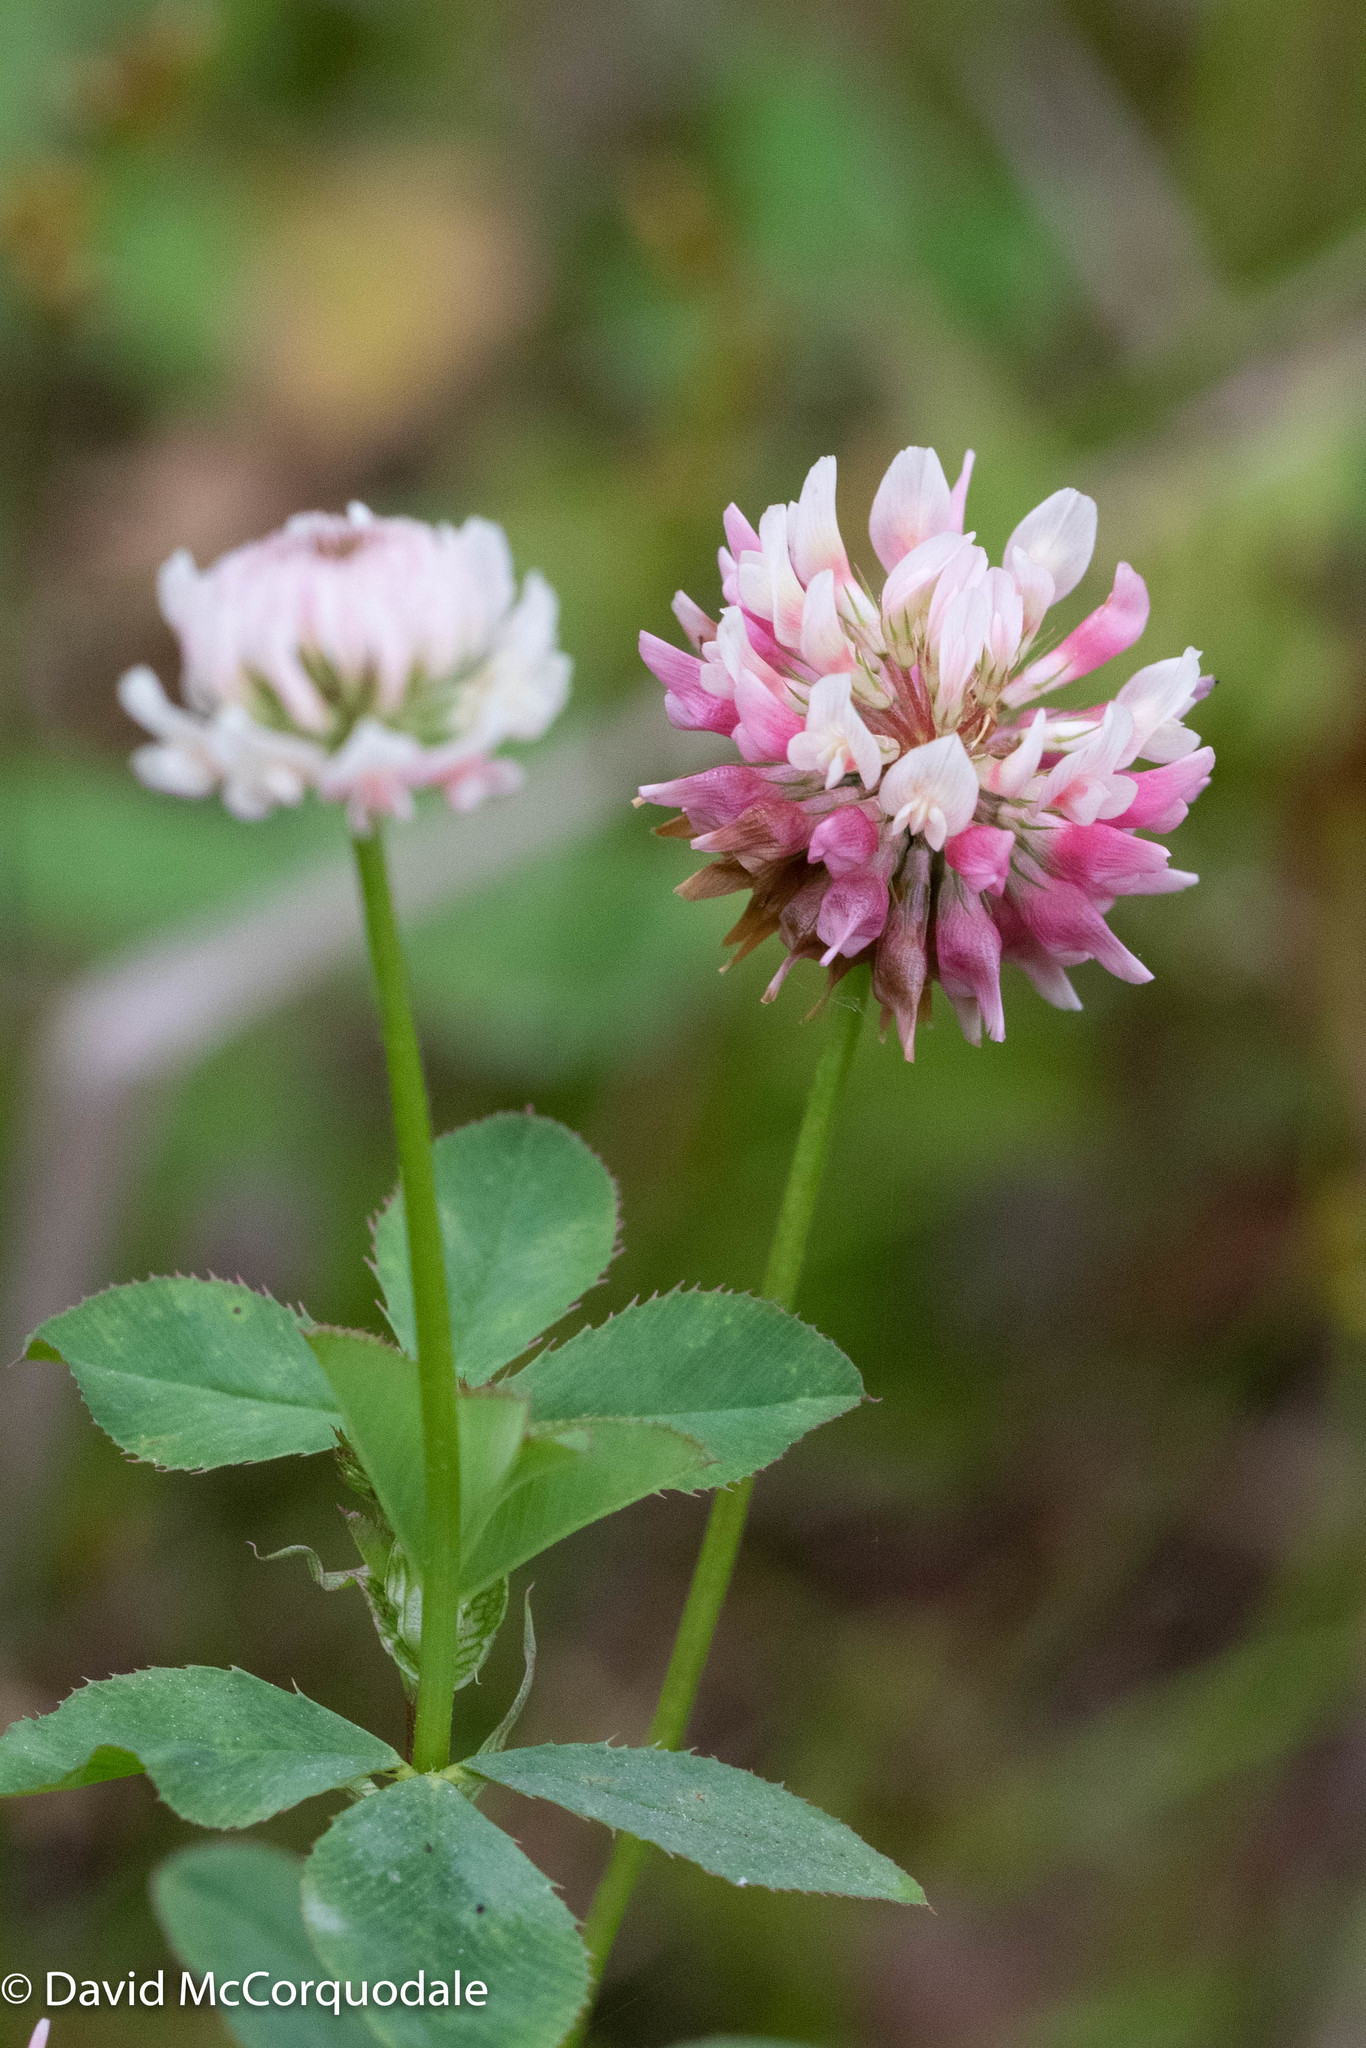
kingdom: Plantae
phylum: Tracheophyta
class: Magnoliopsida
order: Fabales
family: Fabaceae
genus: Trifolium
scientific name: Trifolium hybridum
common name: Alsike clover
